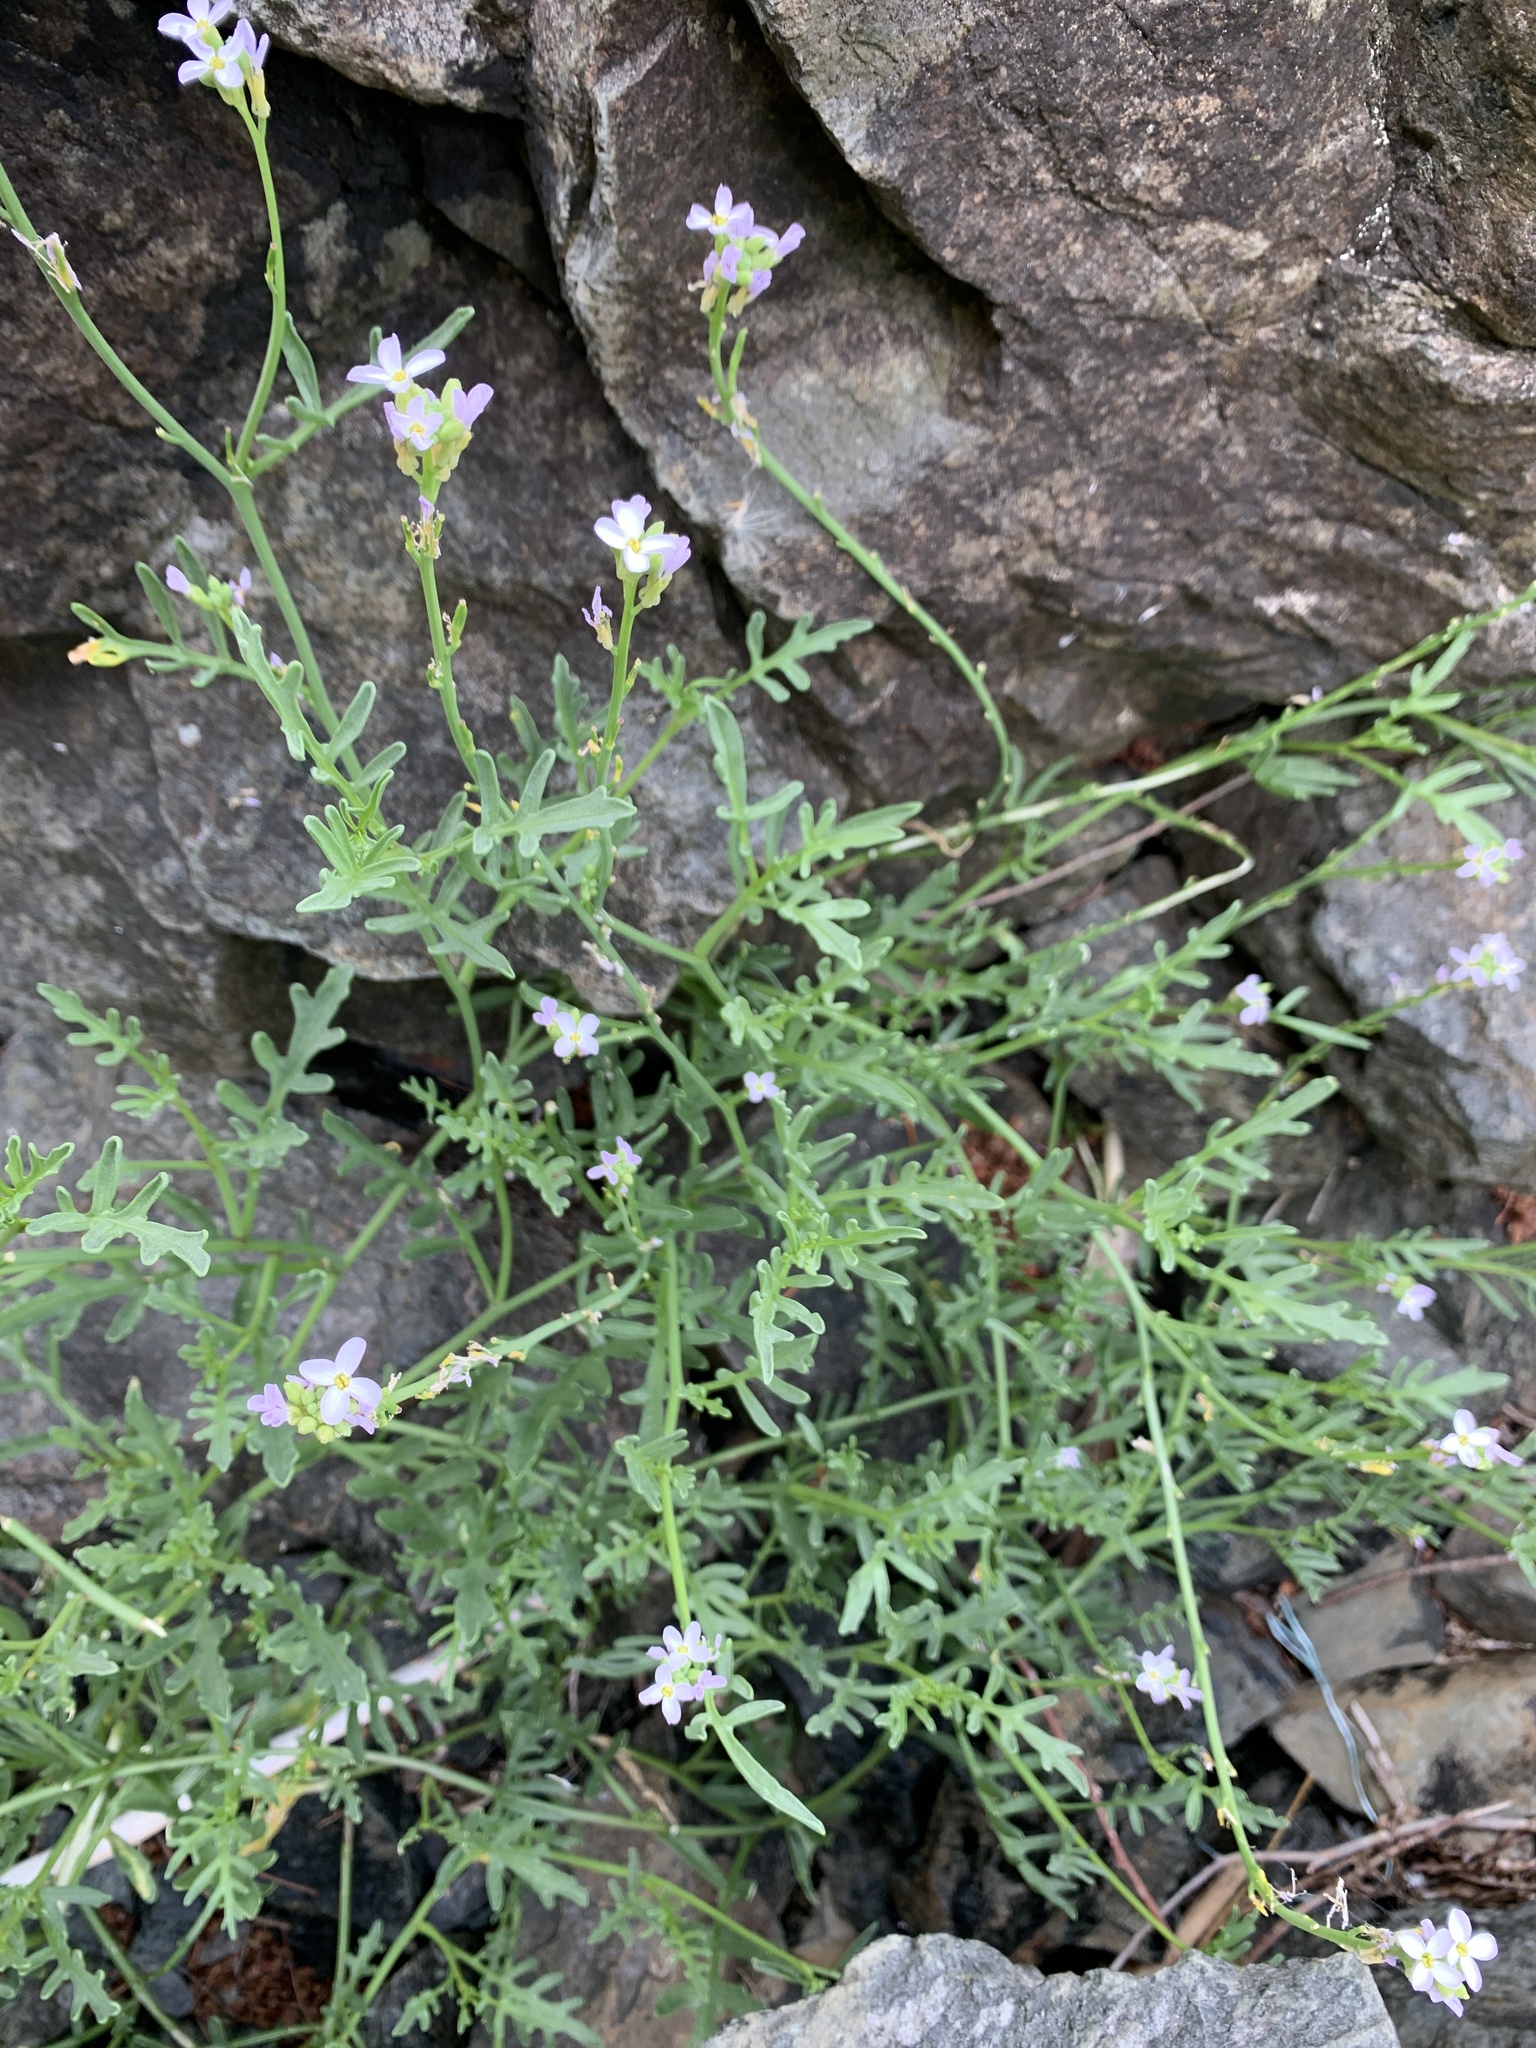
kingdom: Plantae
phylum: Tracheophyta
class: Magnoliopsida
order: Brassicales
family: Brassicaceae
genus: Cakile
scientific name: Cakile maritima
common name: Sea rocket
